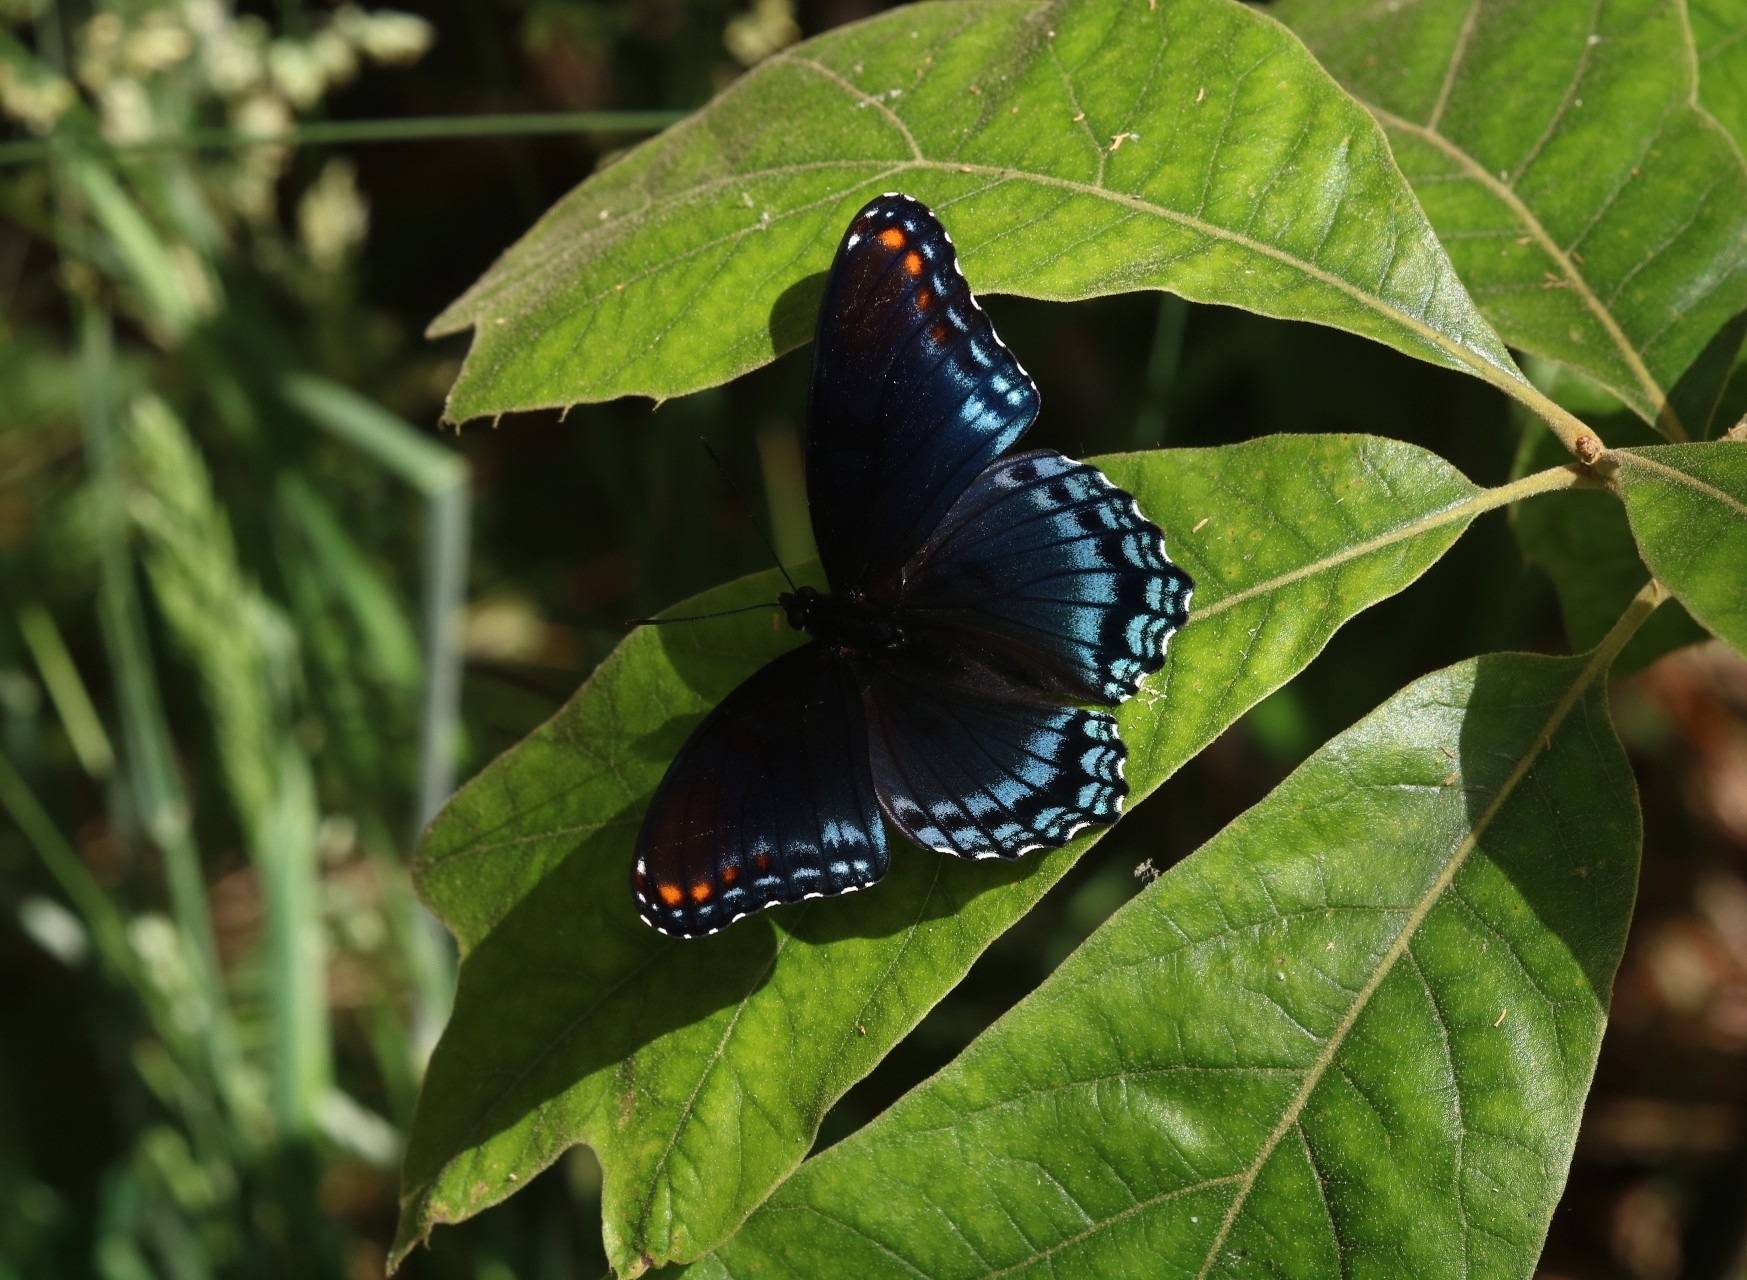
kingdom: Animalia
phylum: Arthropoda
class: Insecta
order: Lepidoptera
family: Nymphalidae
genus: Limenitis
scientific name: Limenitis arthemis
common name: Red-spotted admiral
